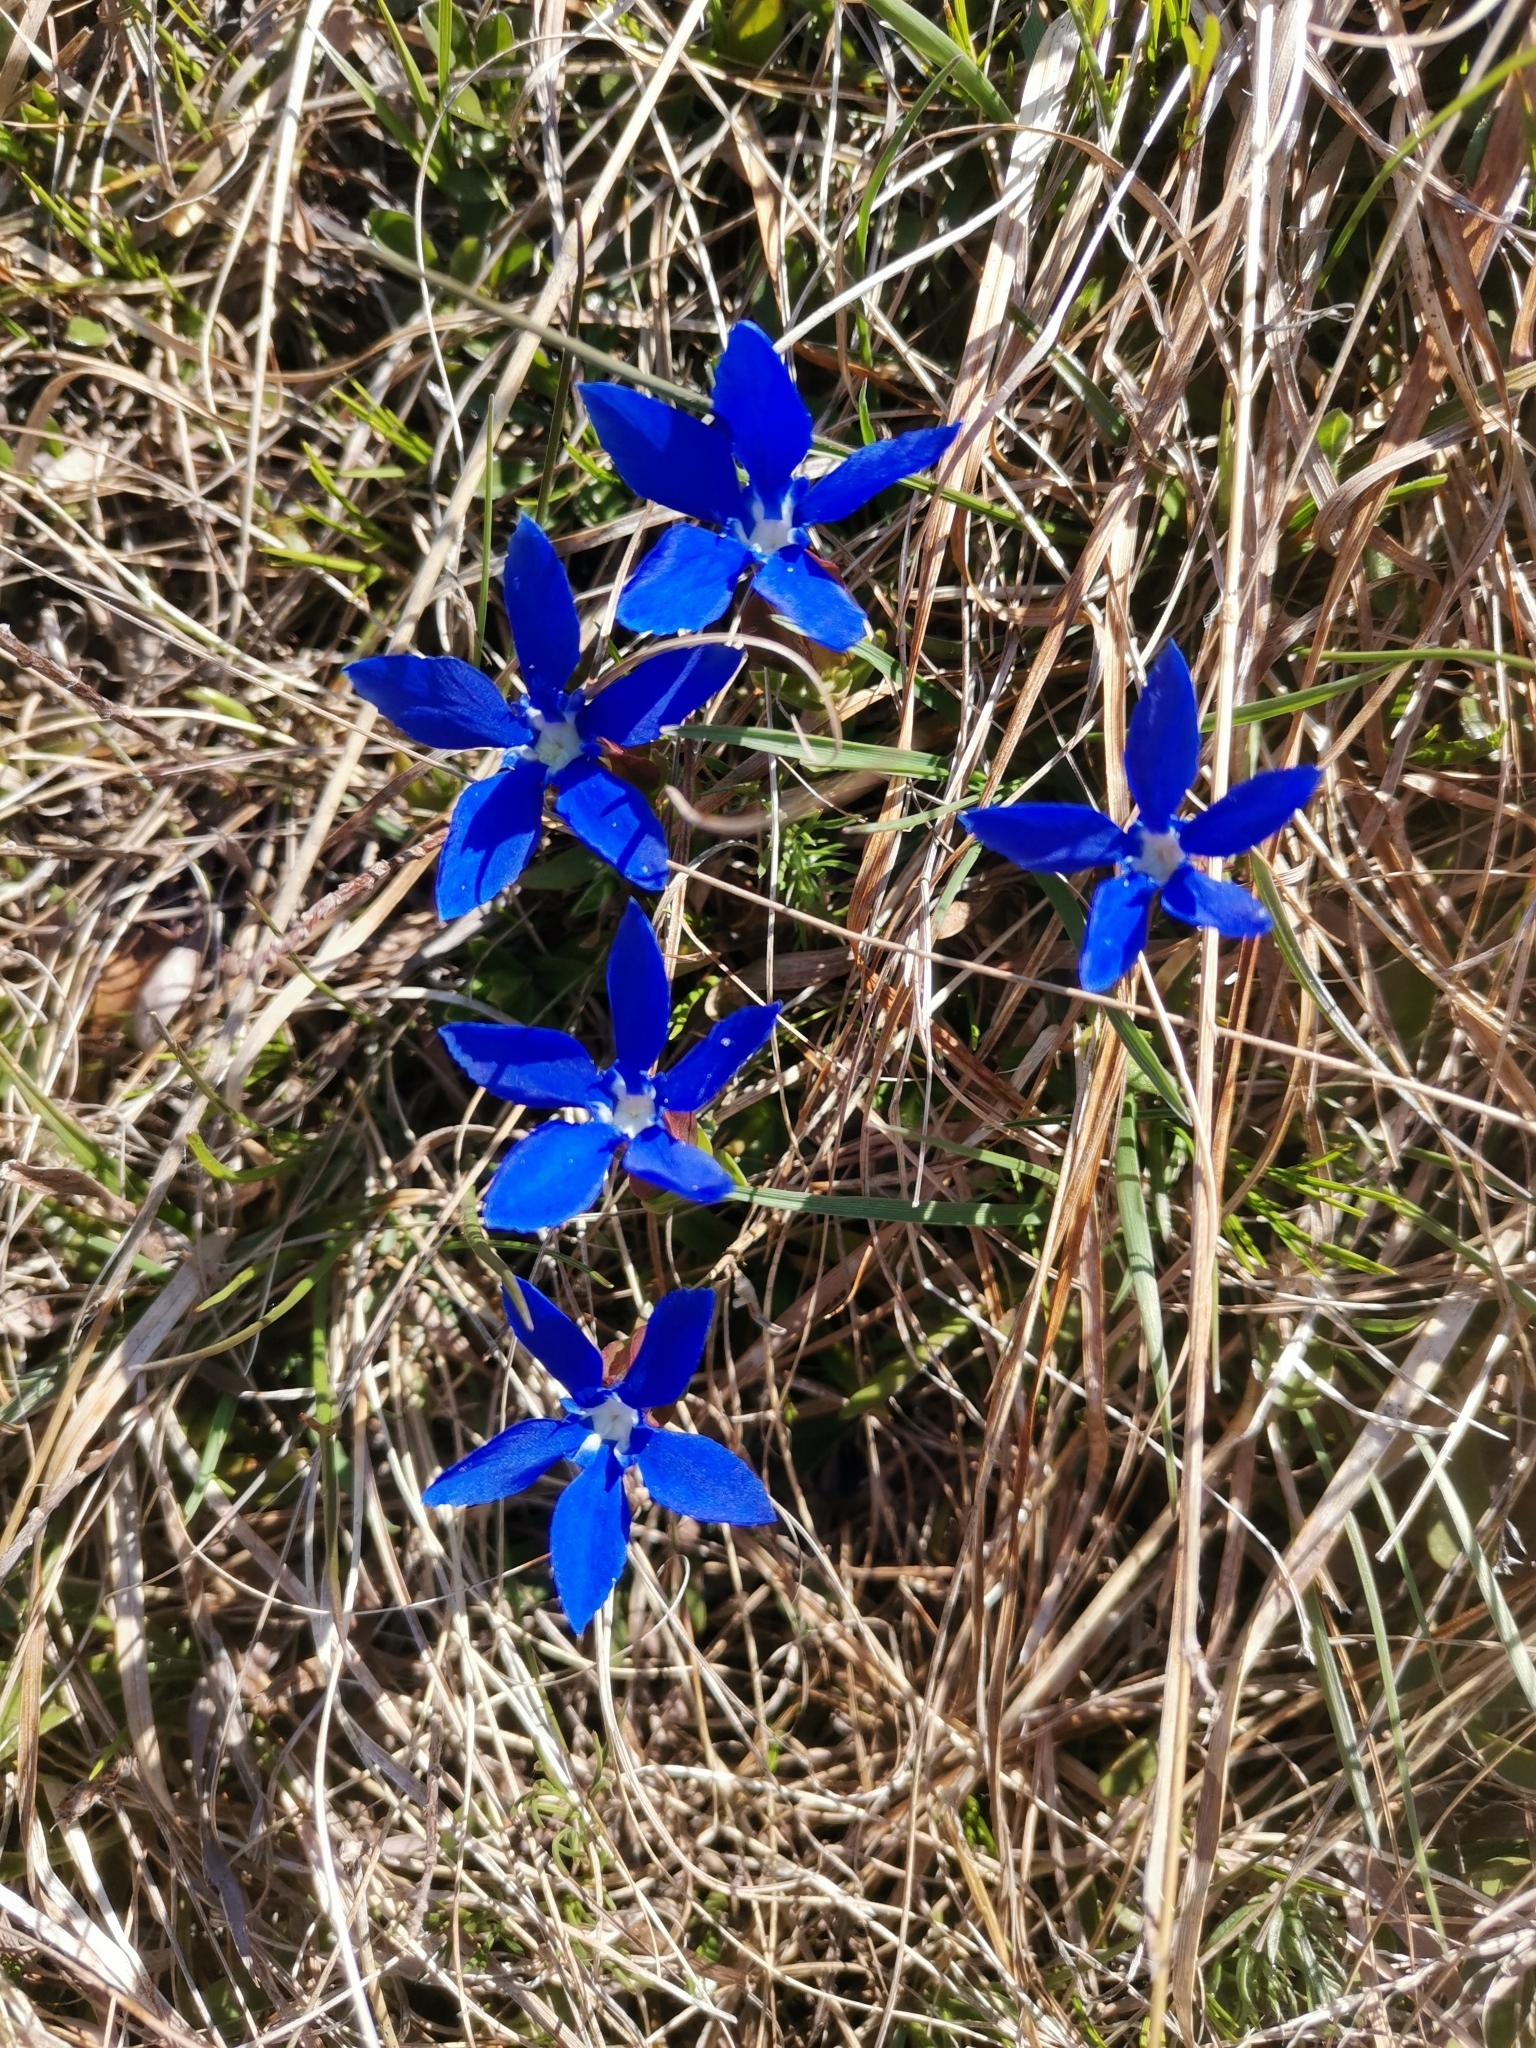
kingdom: Plantae
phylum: Tracheophyta
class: Magnoliopsida
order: Gentianales
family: Gentianaceae
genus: Gentiana
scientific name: Gentiana verna
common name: Spring gentian
